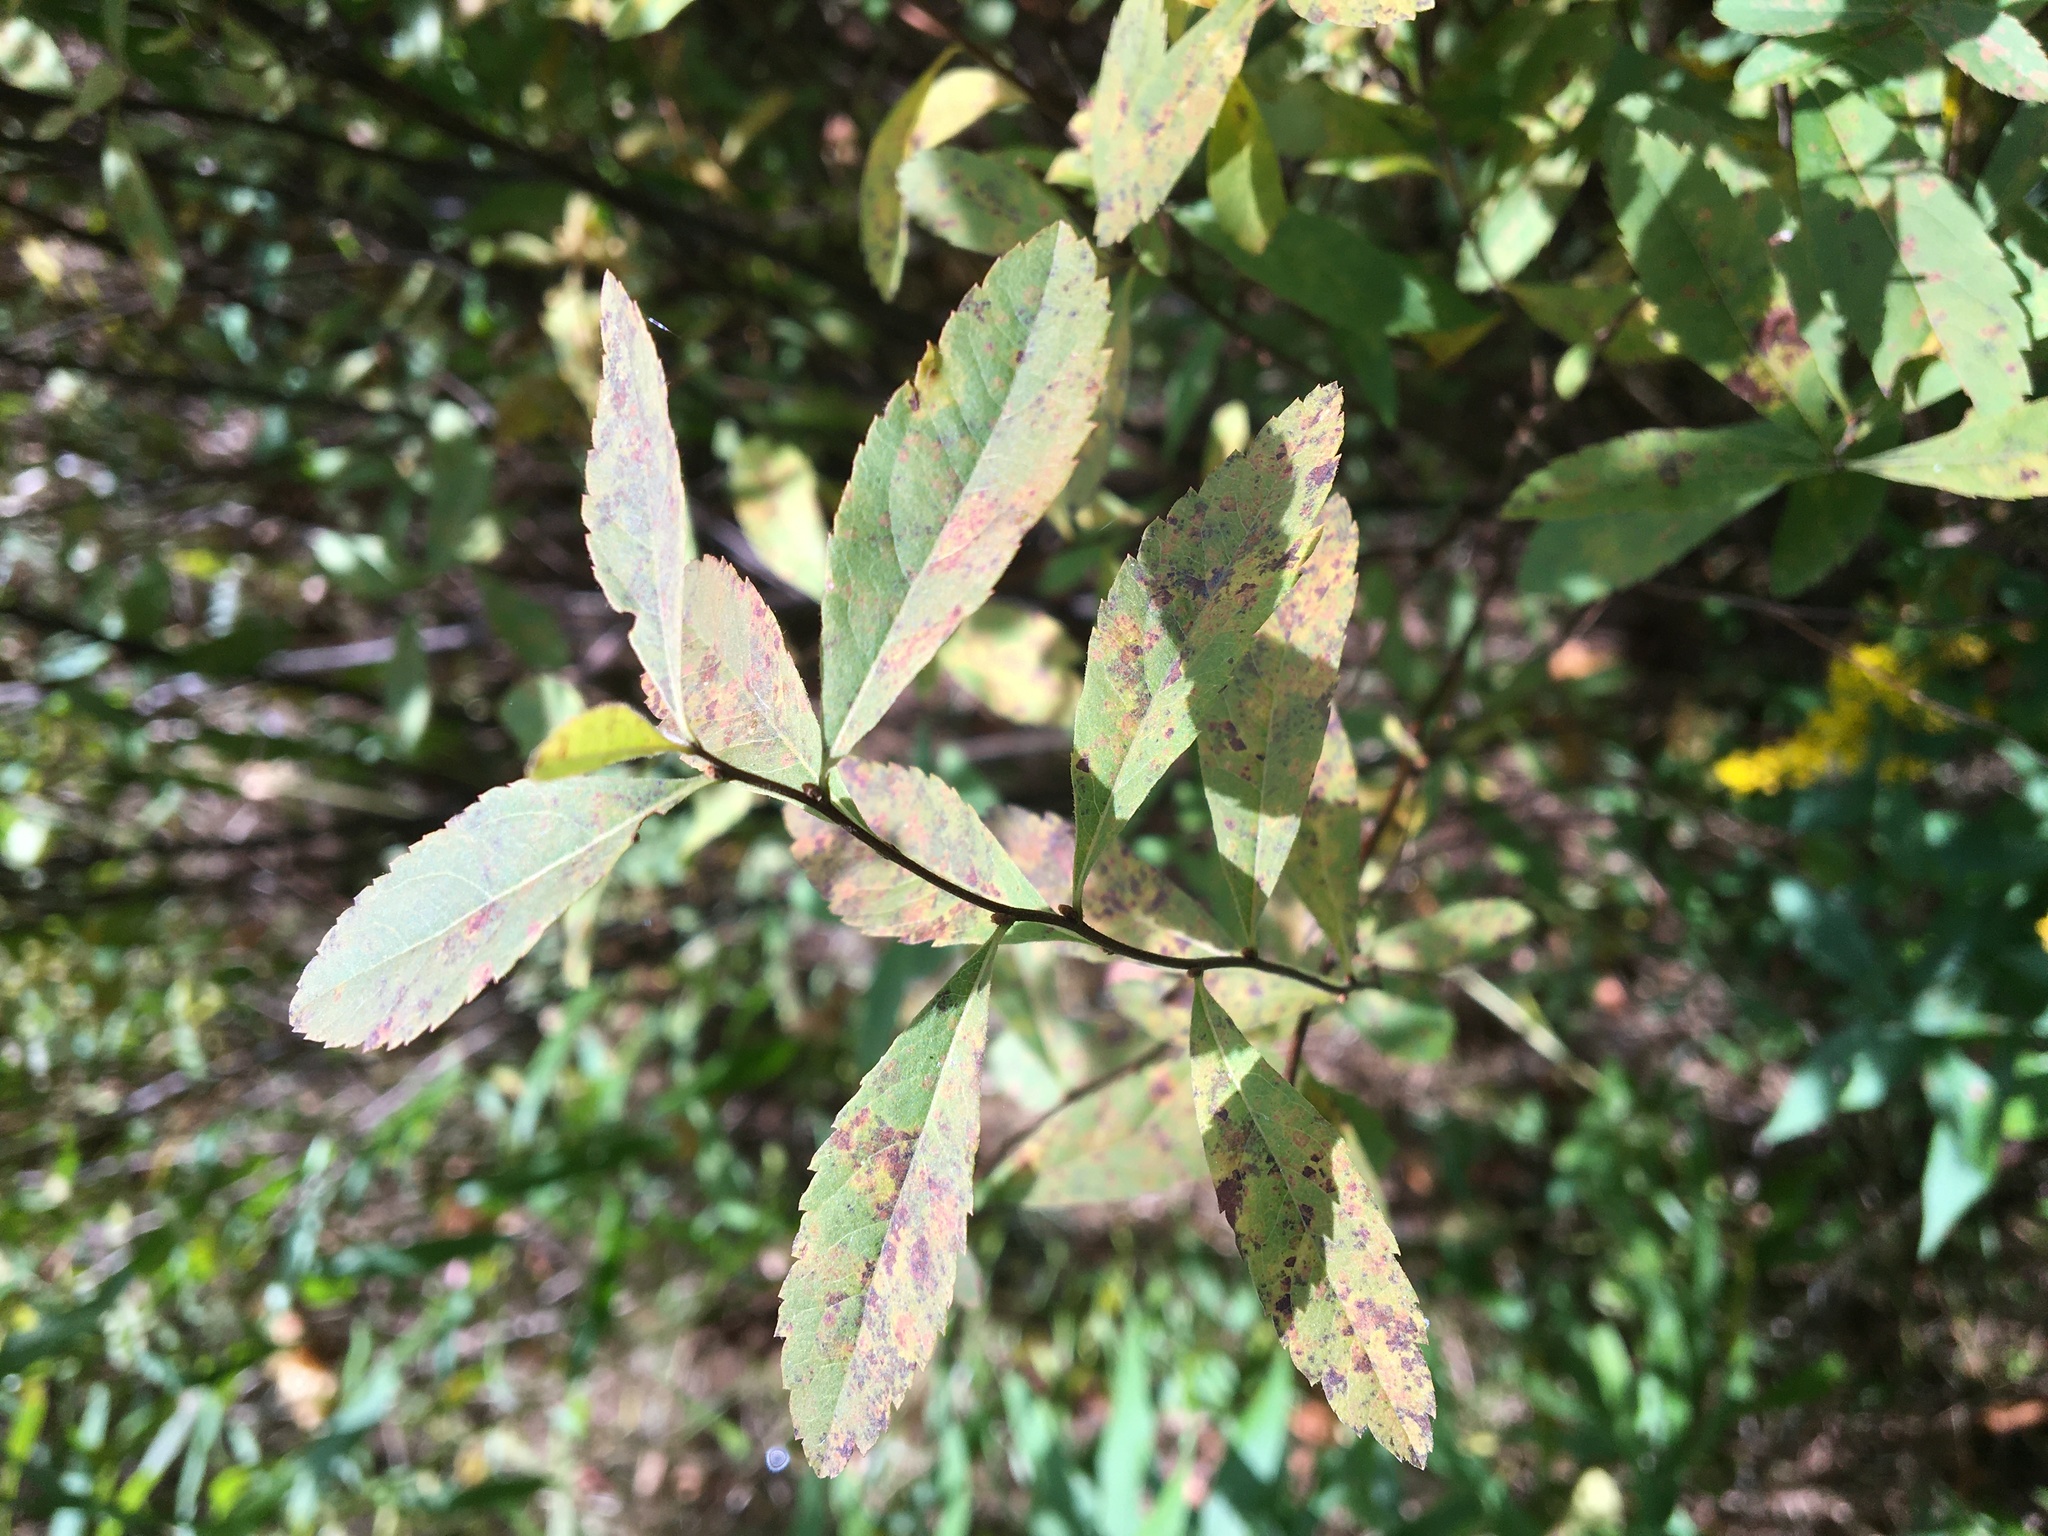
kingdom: Plantae
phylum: Tracheophyta
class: Magnoliopsida
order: Rosales
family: Rosaceae
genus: Spiraea
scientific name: Spiraea alba
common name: Pale bridewort
